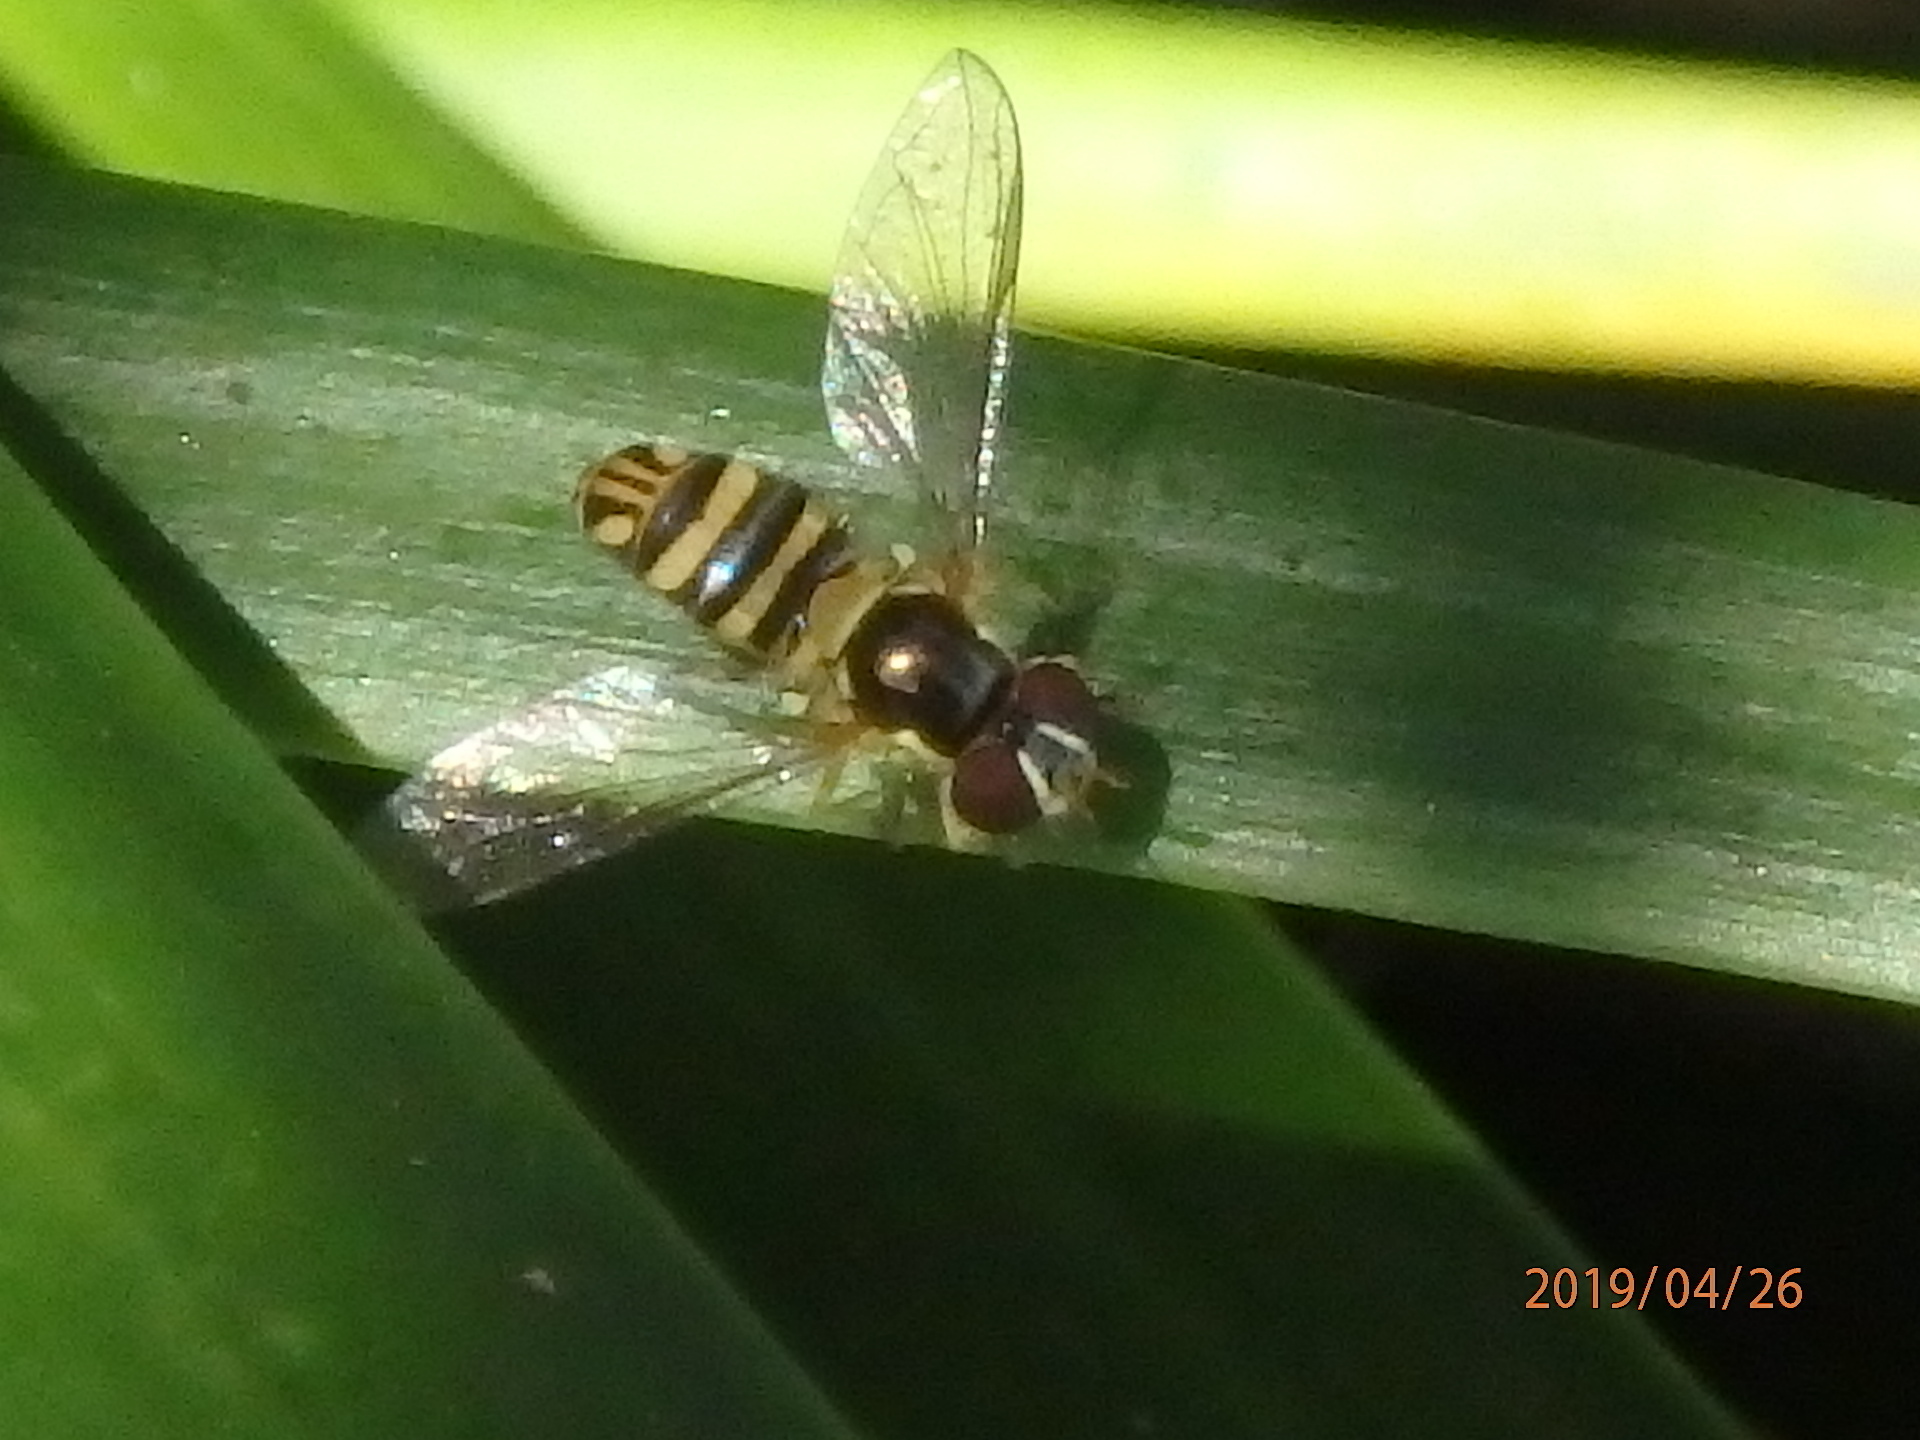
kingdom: Animalia
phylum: Arthropoda
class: Insecta
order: Diptera
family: Syrphidae
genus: Allograpta
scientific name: Allograpta obliqua
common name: Common oblique syrphid
